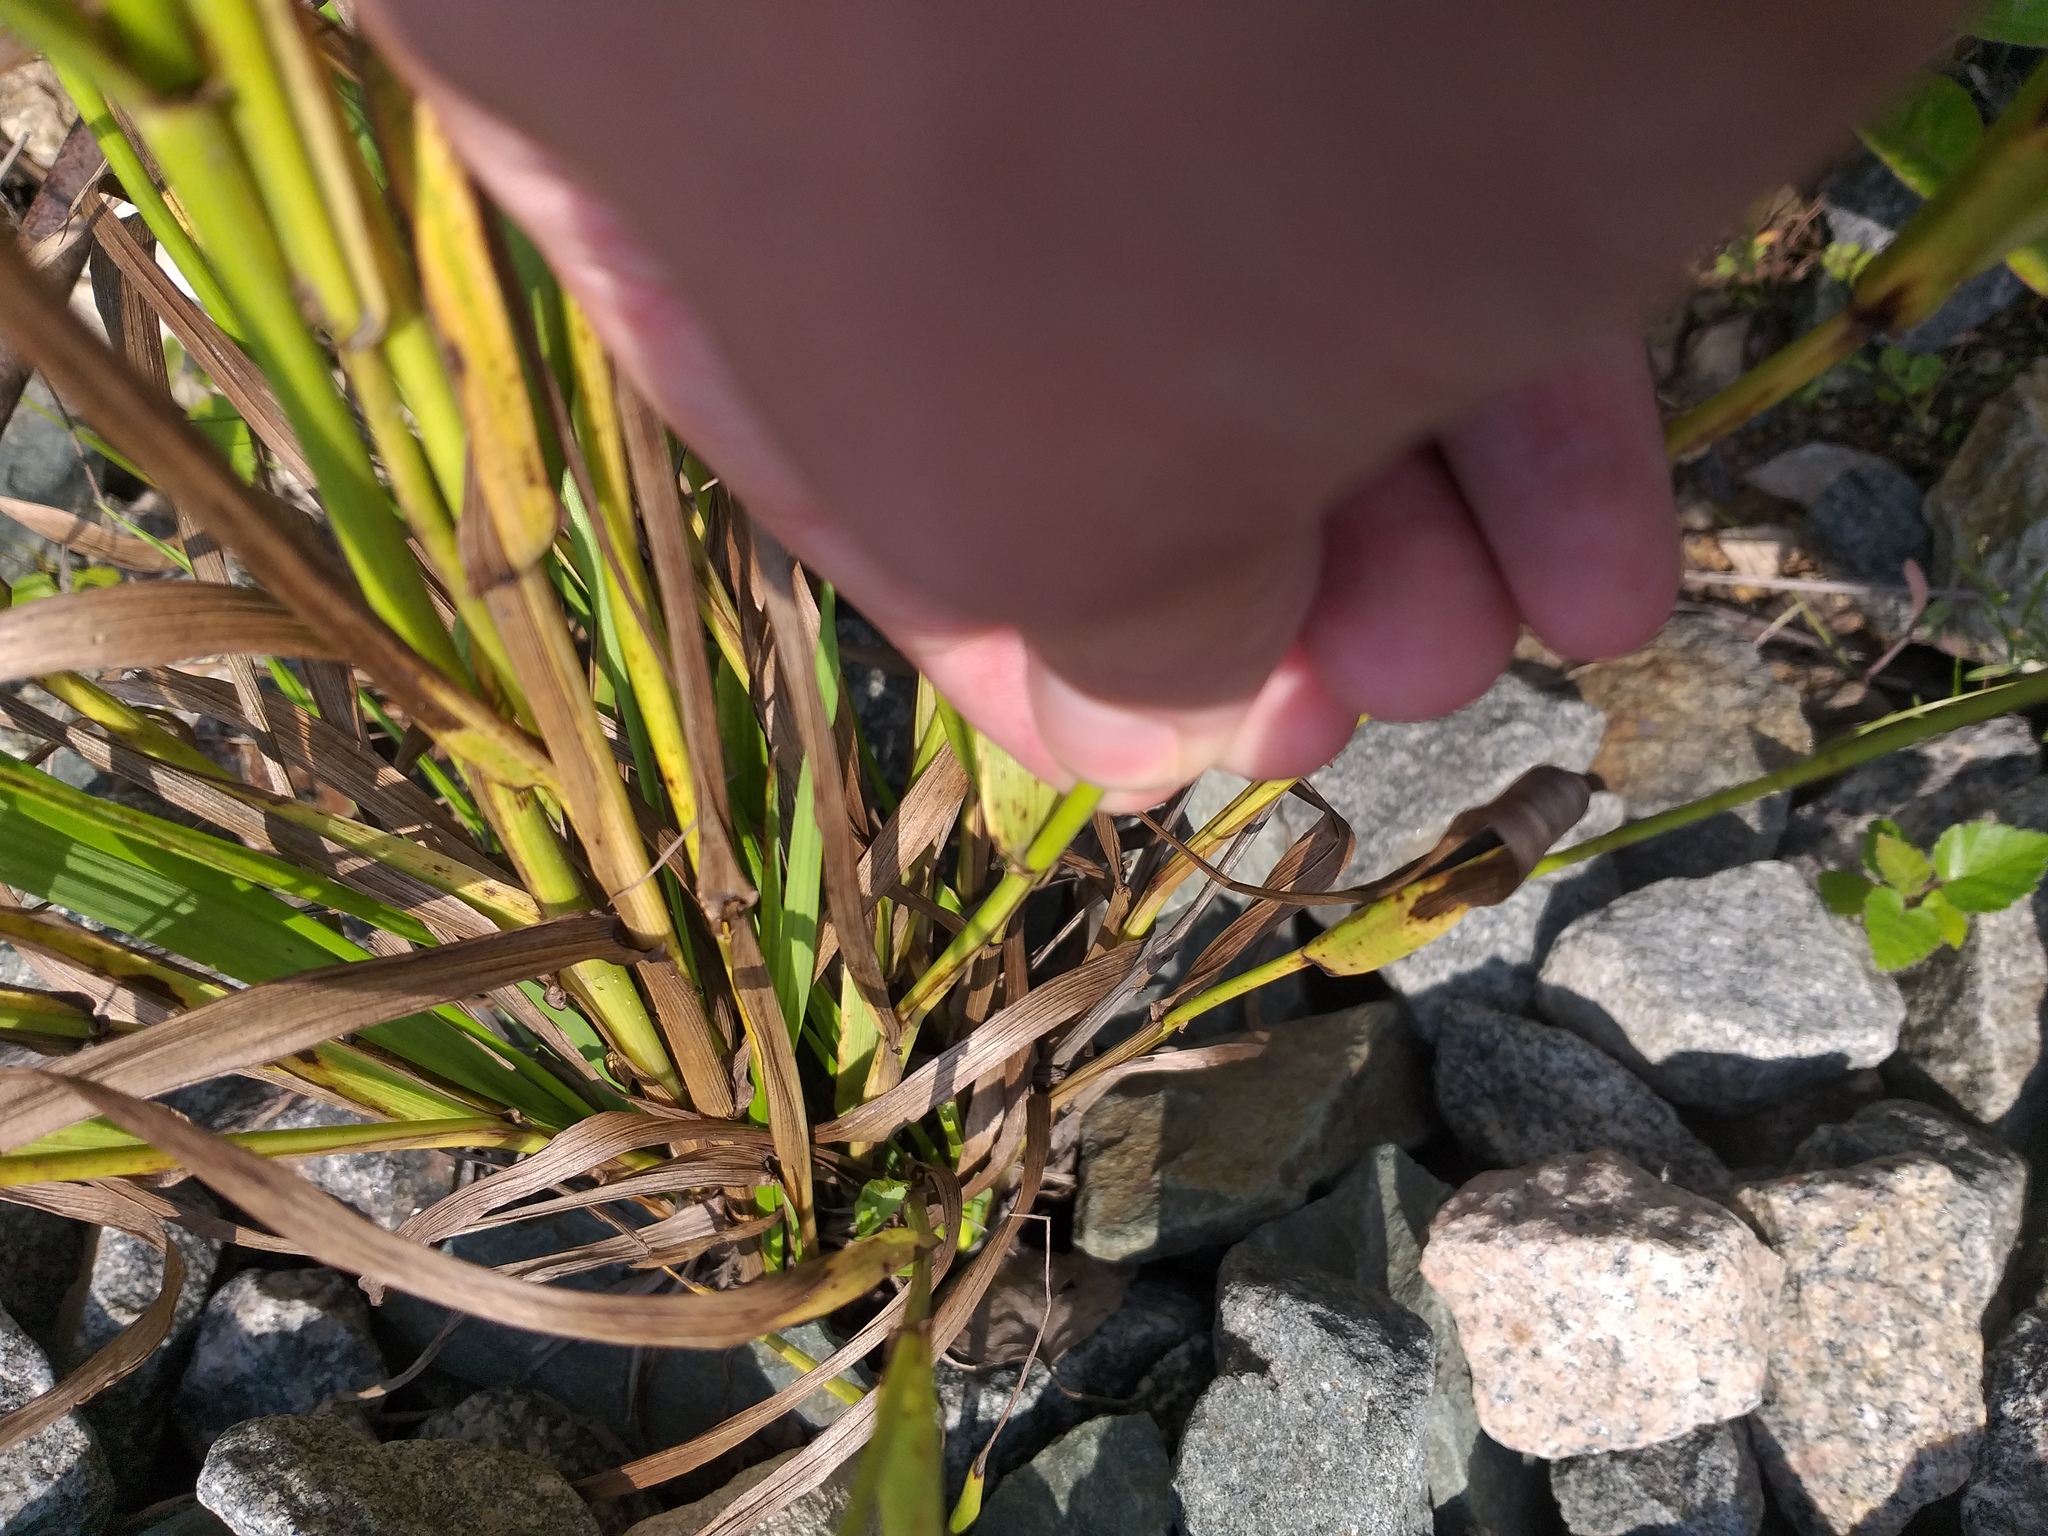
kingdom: Plantae
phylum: Tracheophyta
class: Liliopsida
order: Poales
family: Poaceae
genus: Lolium
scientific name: Lolium giganteum
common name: Giant fescue
